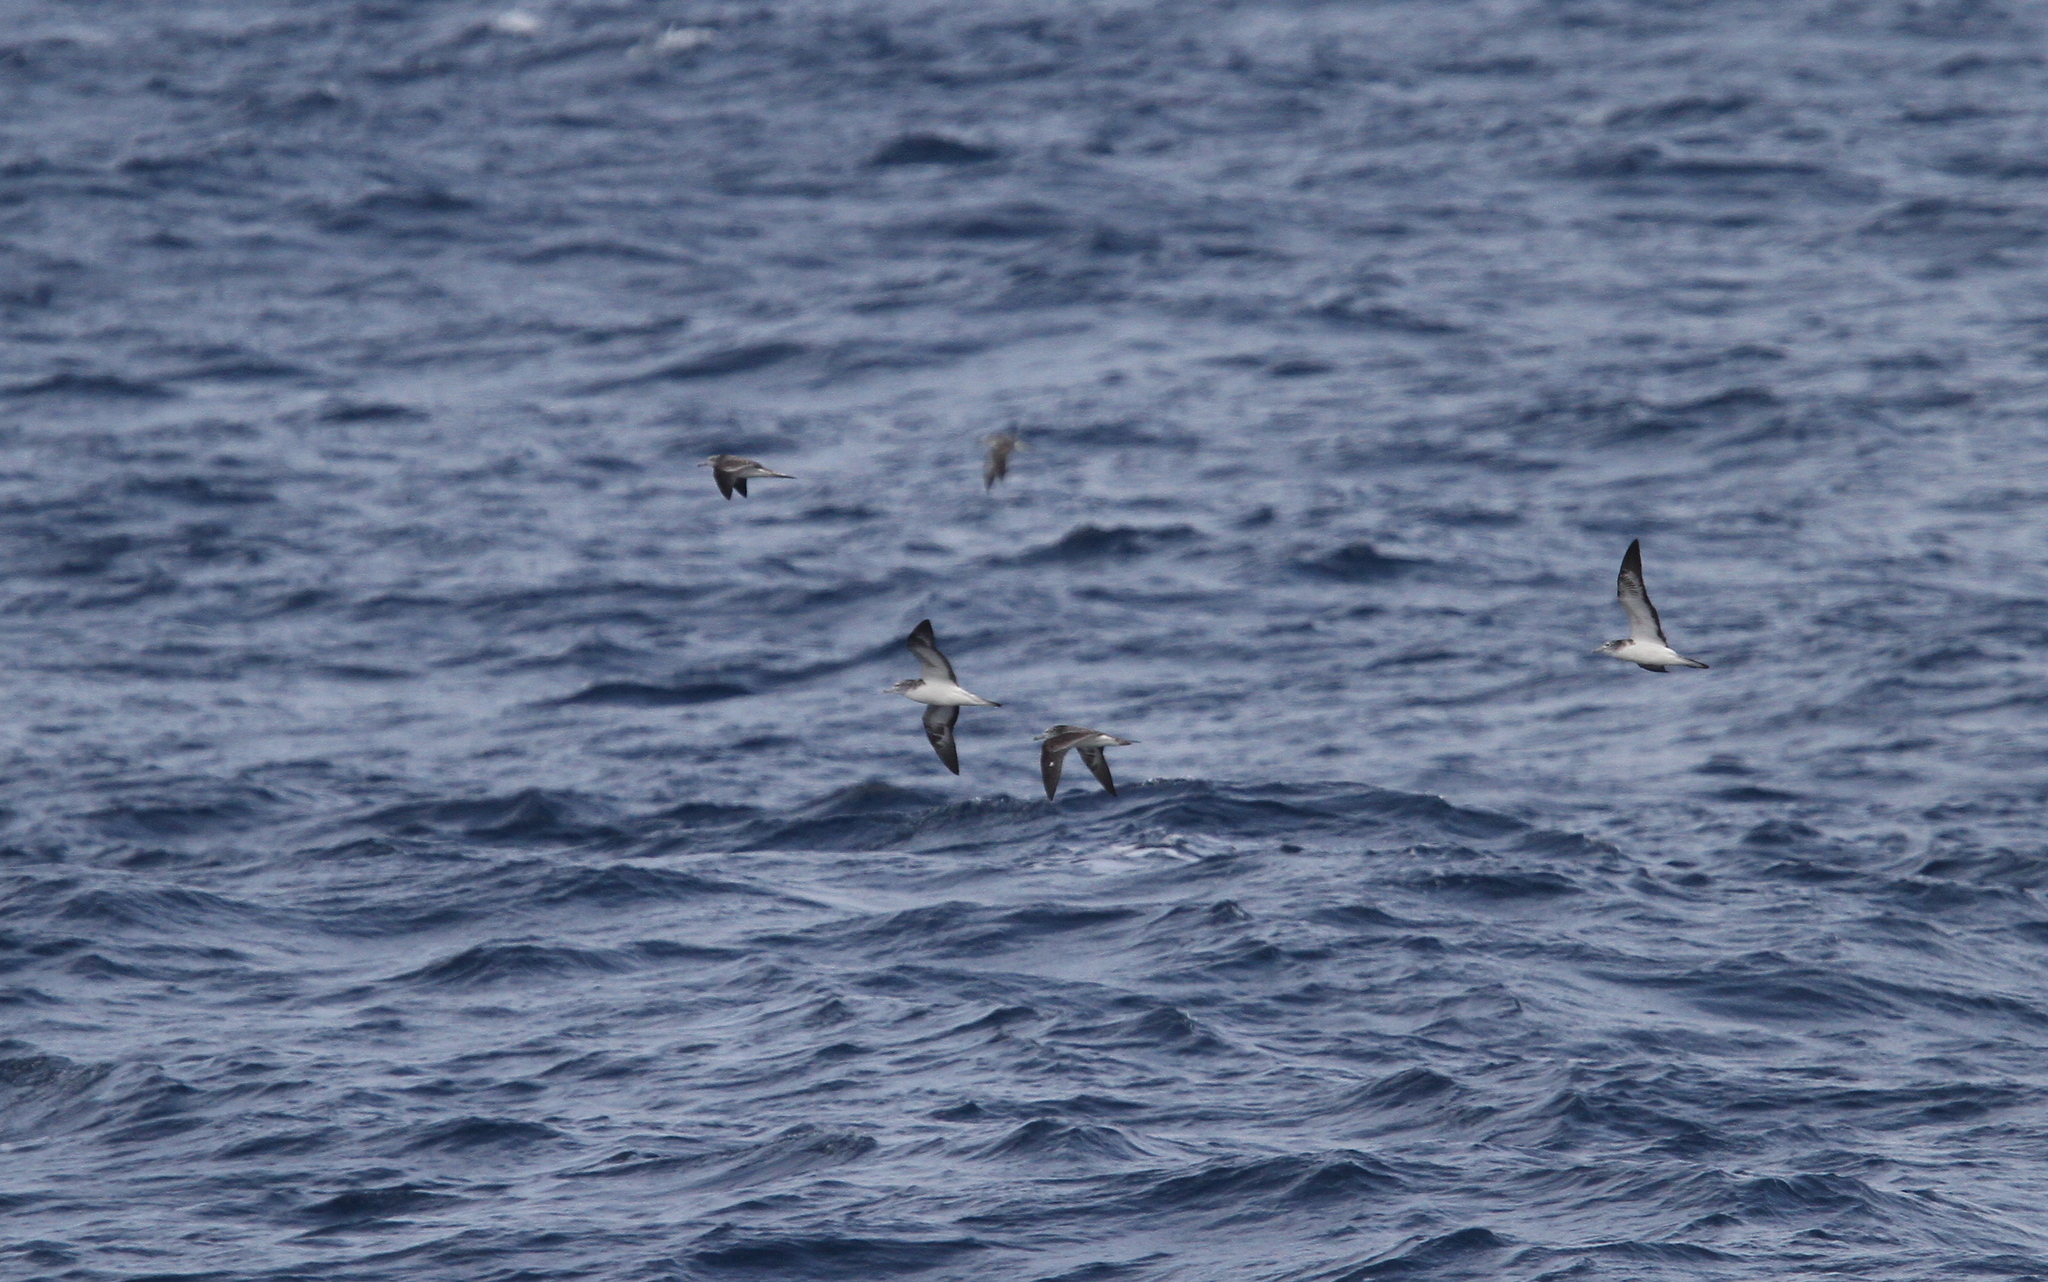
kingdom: Animalia
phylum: Chordata
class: Aves
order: Procellariiformes
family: Procellariidae
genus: Calonectris
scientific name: Calonectris leucomelas
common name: Streaked shearwater
